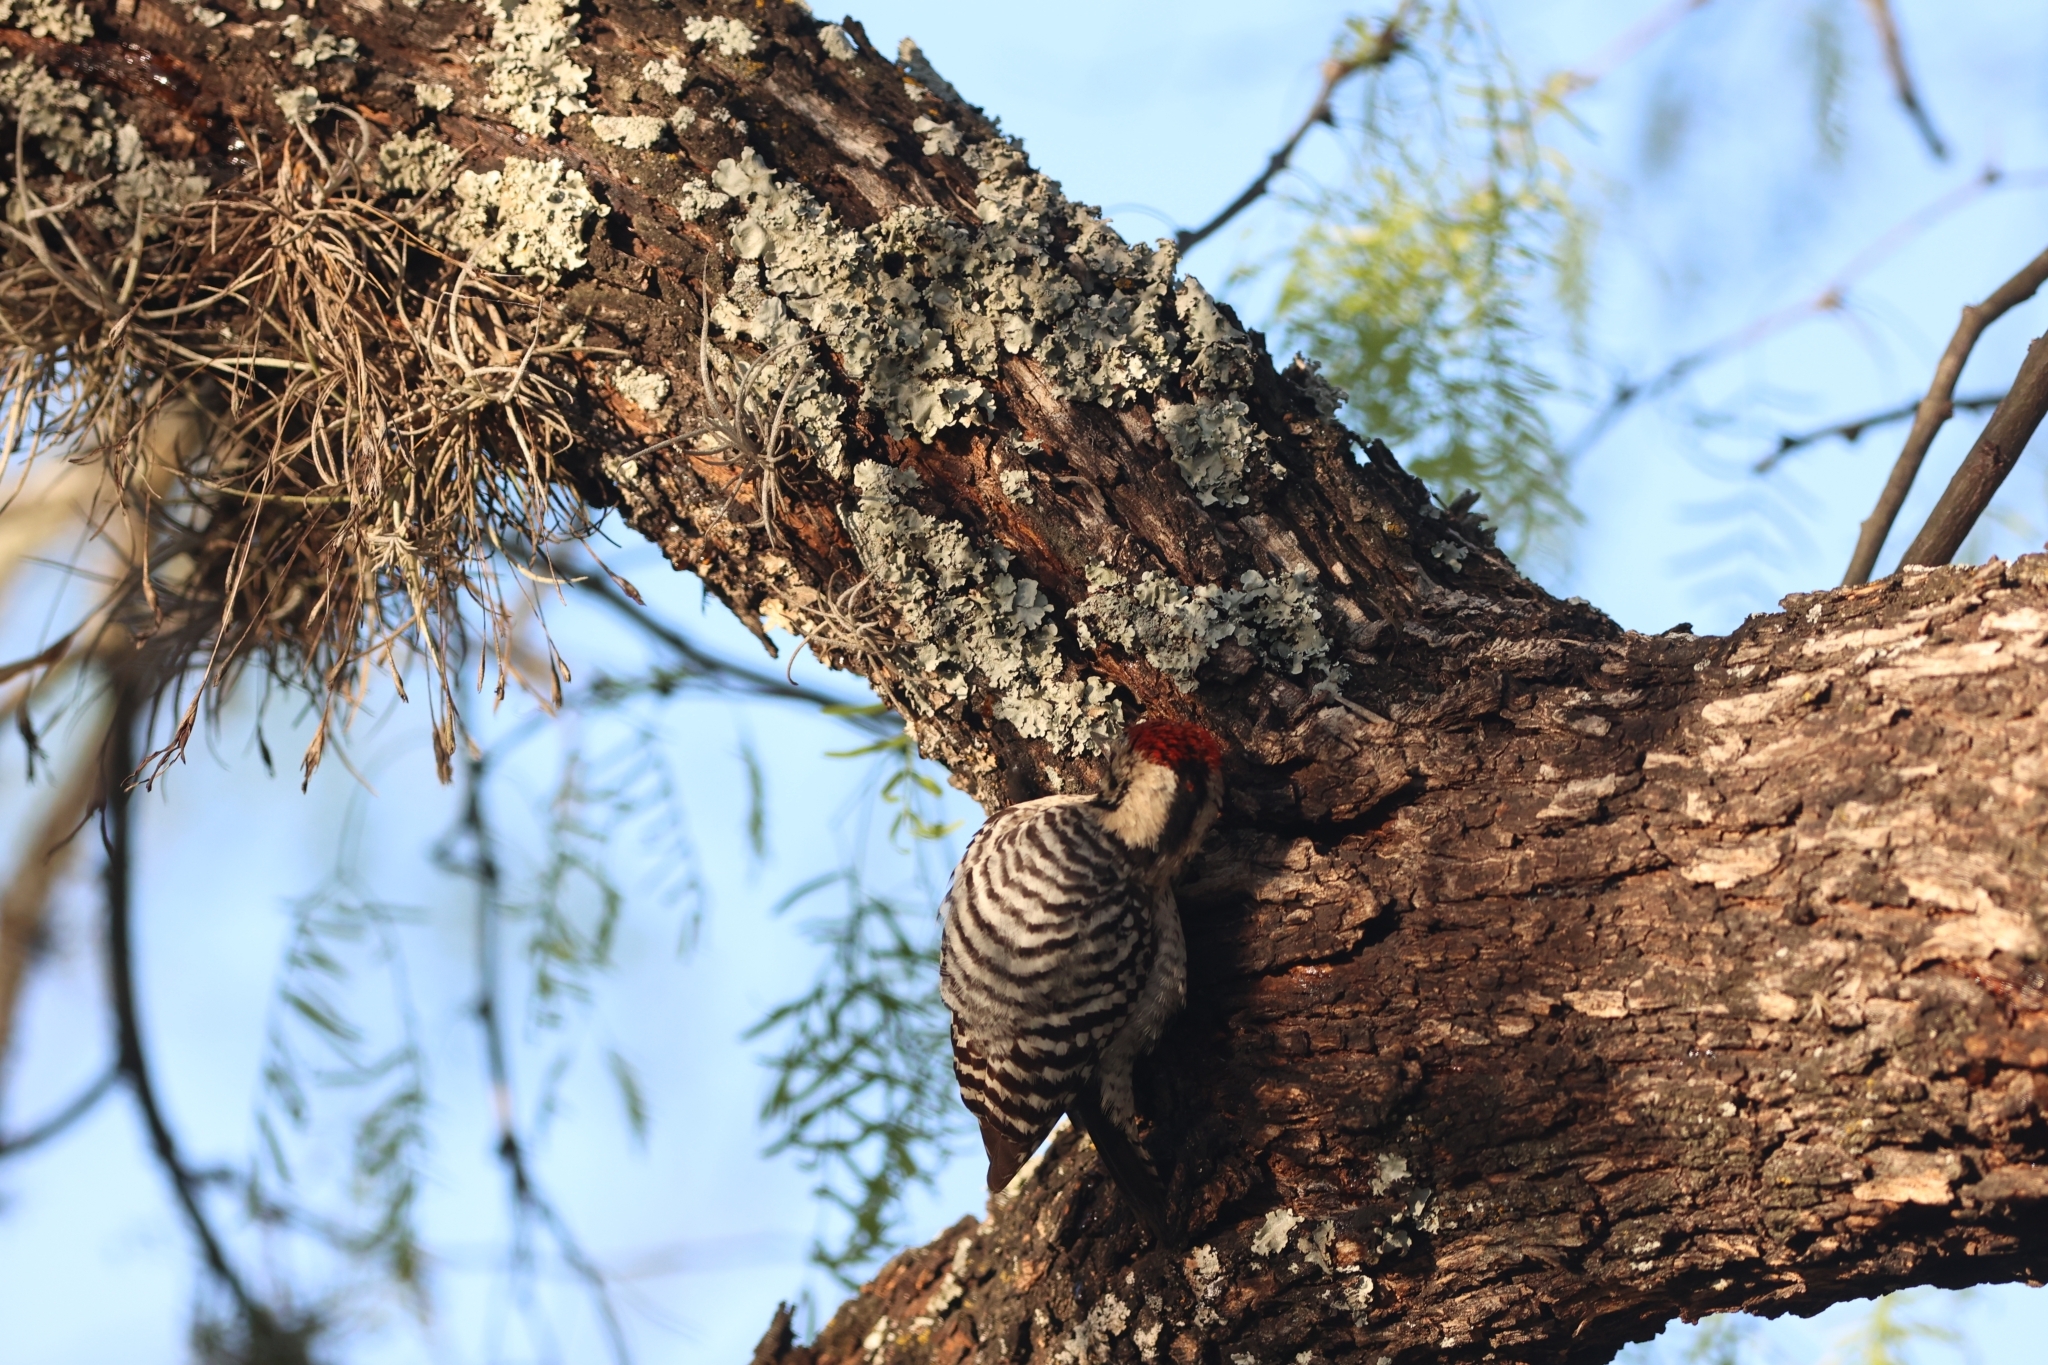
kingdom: Animalia
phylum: Chordata
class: Aves
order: Piciformes
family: Picidae
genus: Dryobates
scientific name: Dryobates scalaris
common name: Ladder-backed woodpecker
